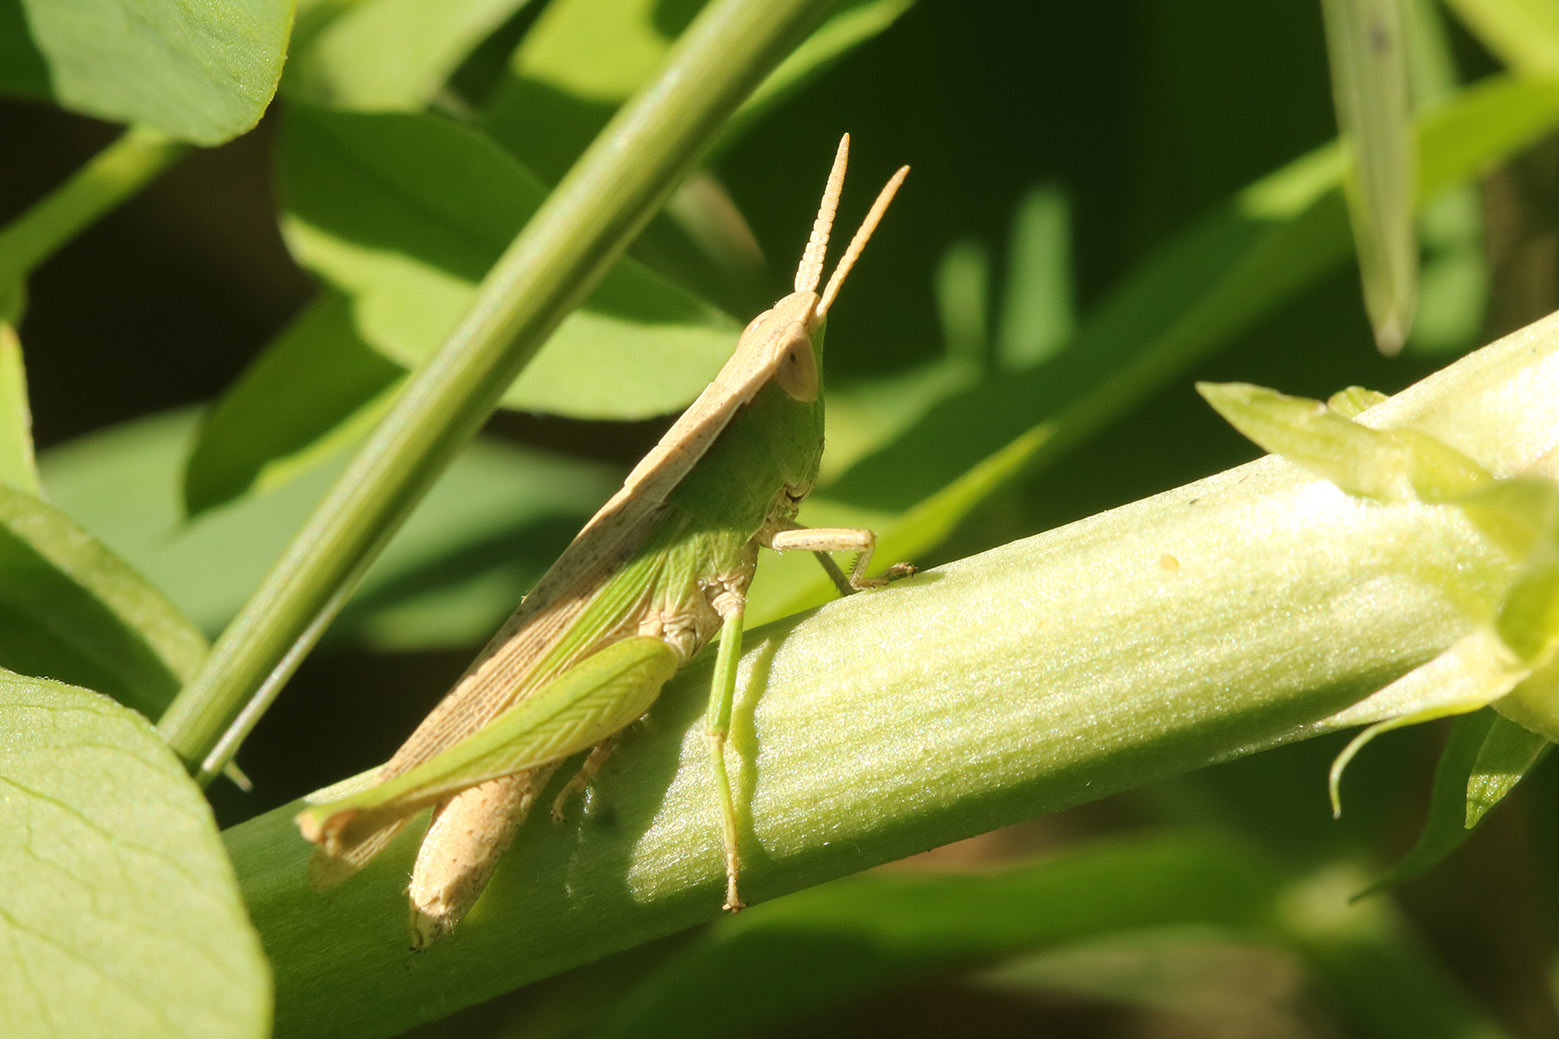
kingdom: Animalia
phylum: Arthropoda
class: Insecta
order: Orthoptera
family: Acrididae
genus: Laplatacris
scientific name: Laplatacris dispar
